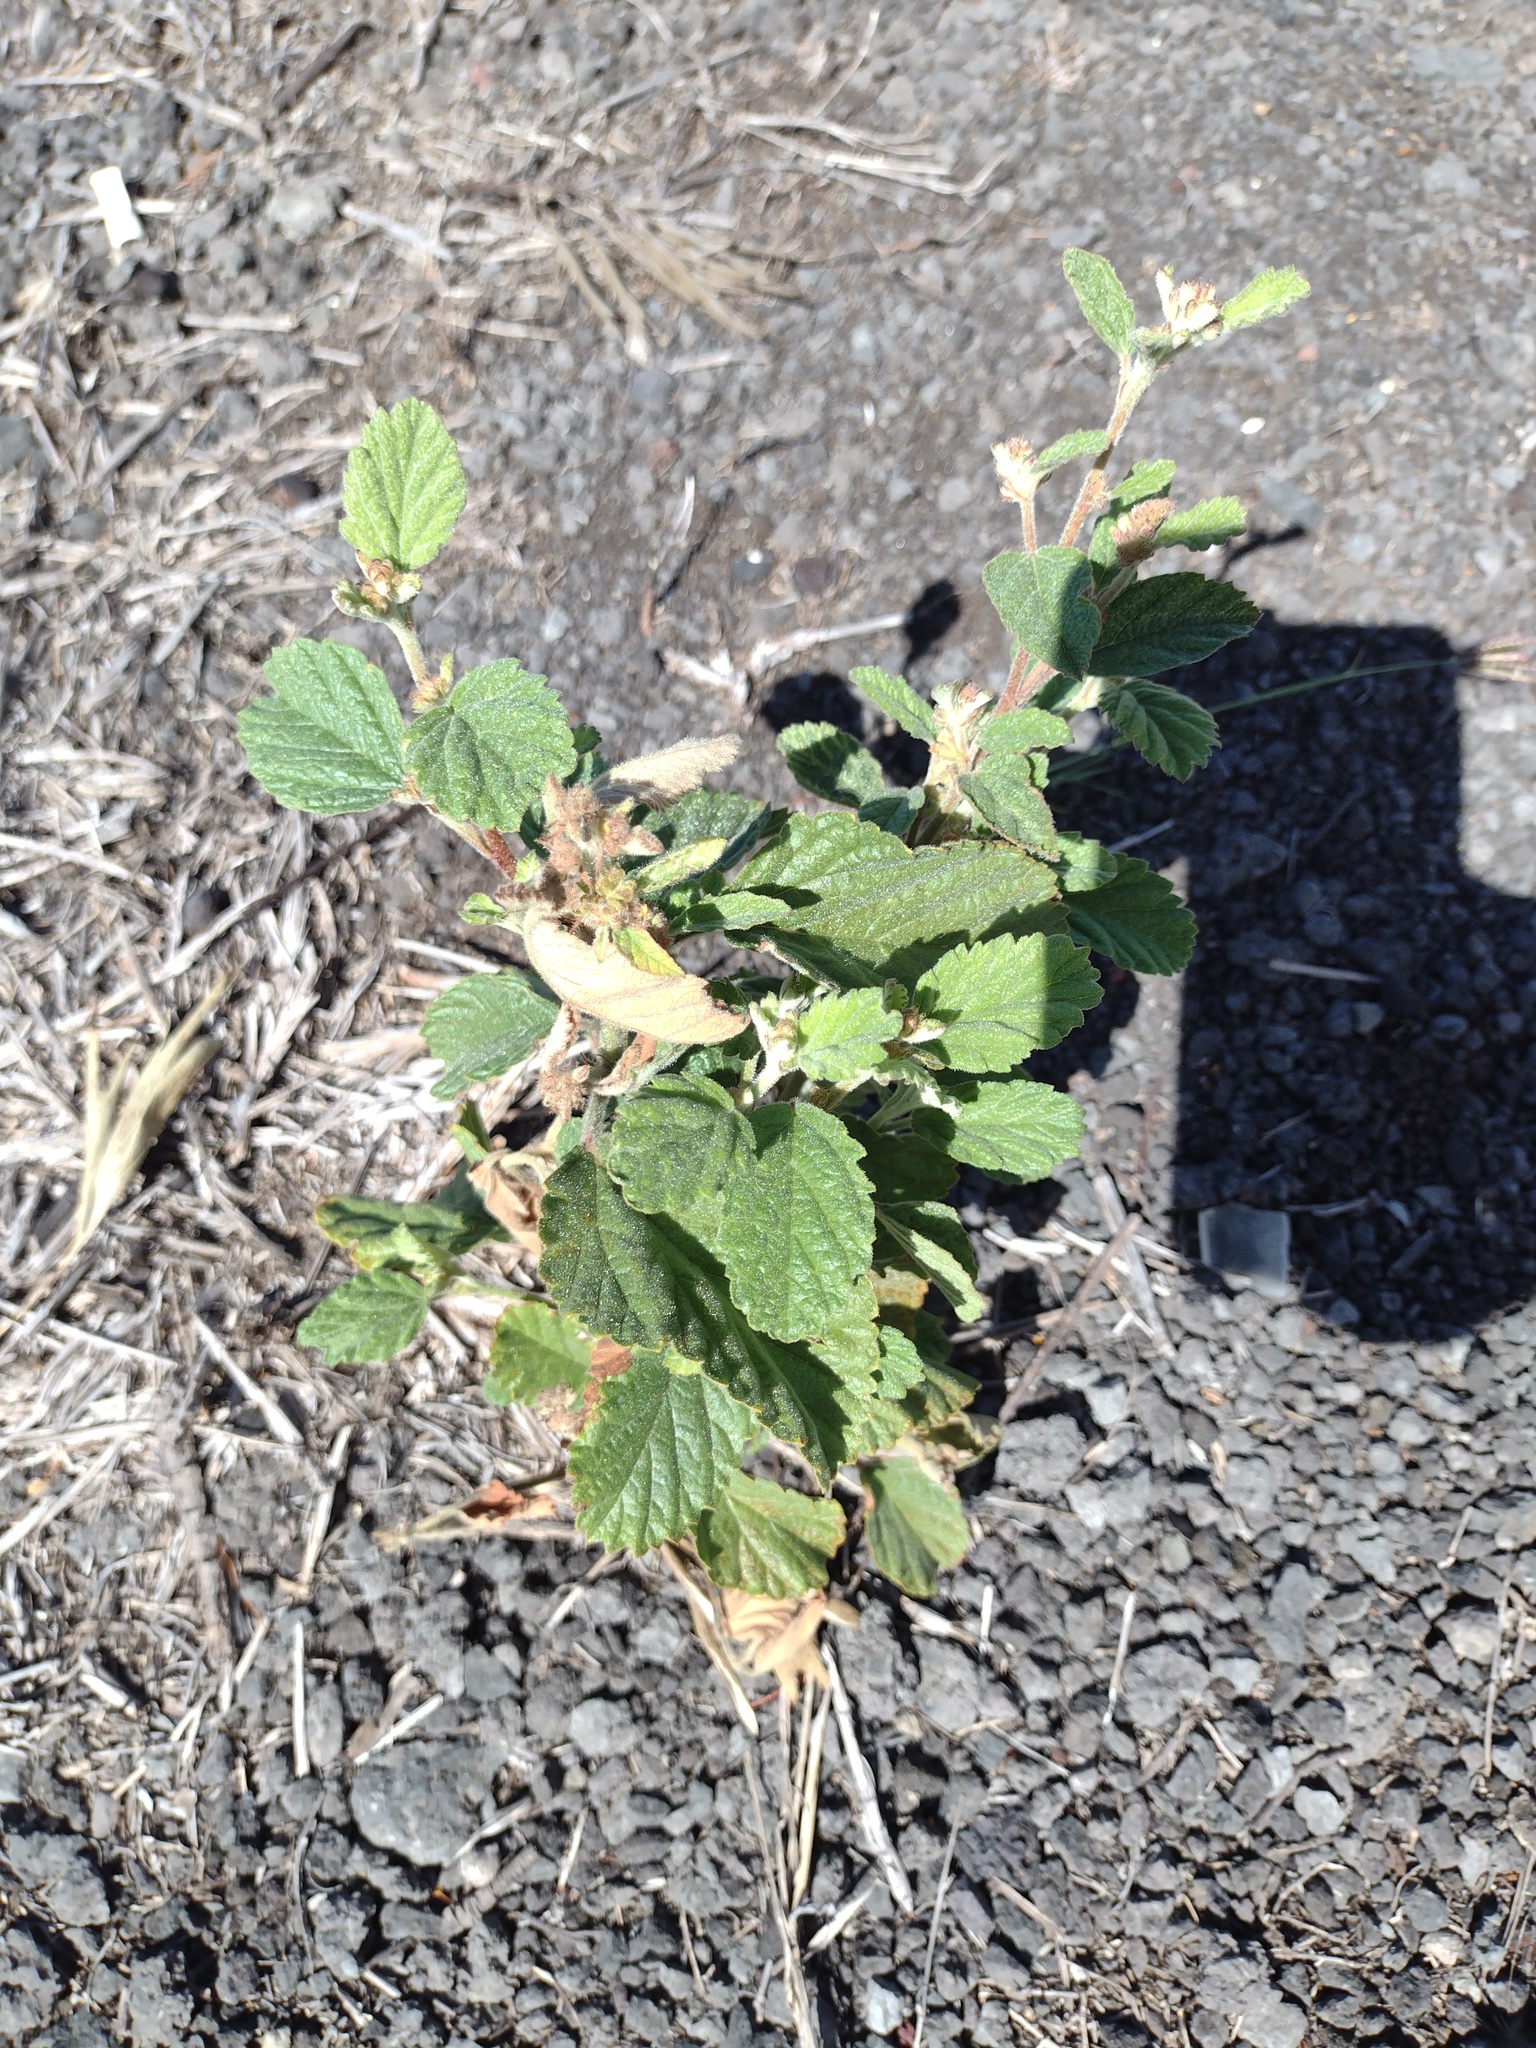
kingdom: Plantae
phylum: Tracheophyta
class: Magnoliopsida
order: Malvales
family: Malvaceae
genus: Waltheria
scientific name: Waltheria indica
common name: Leather-coat
